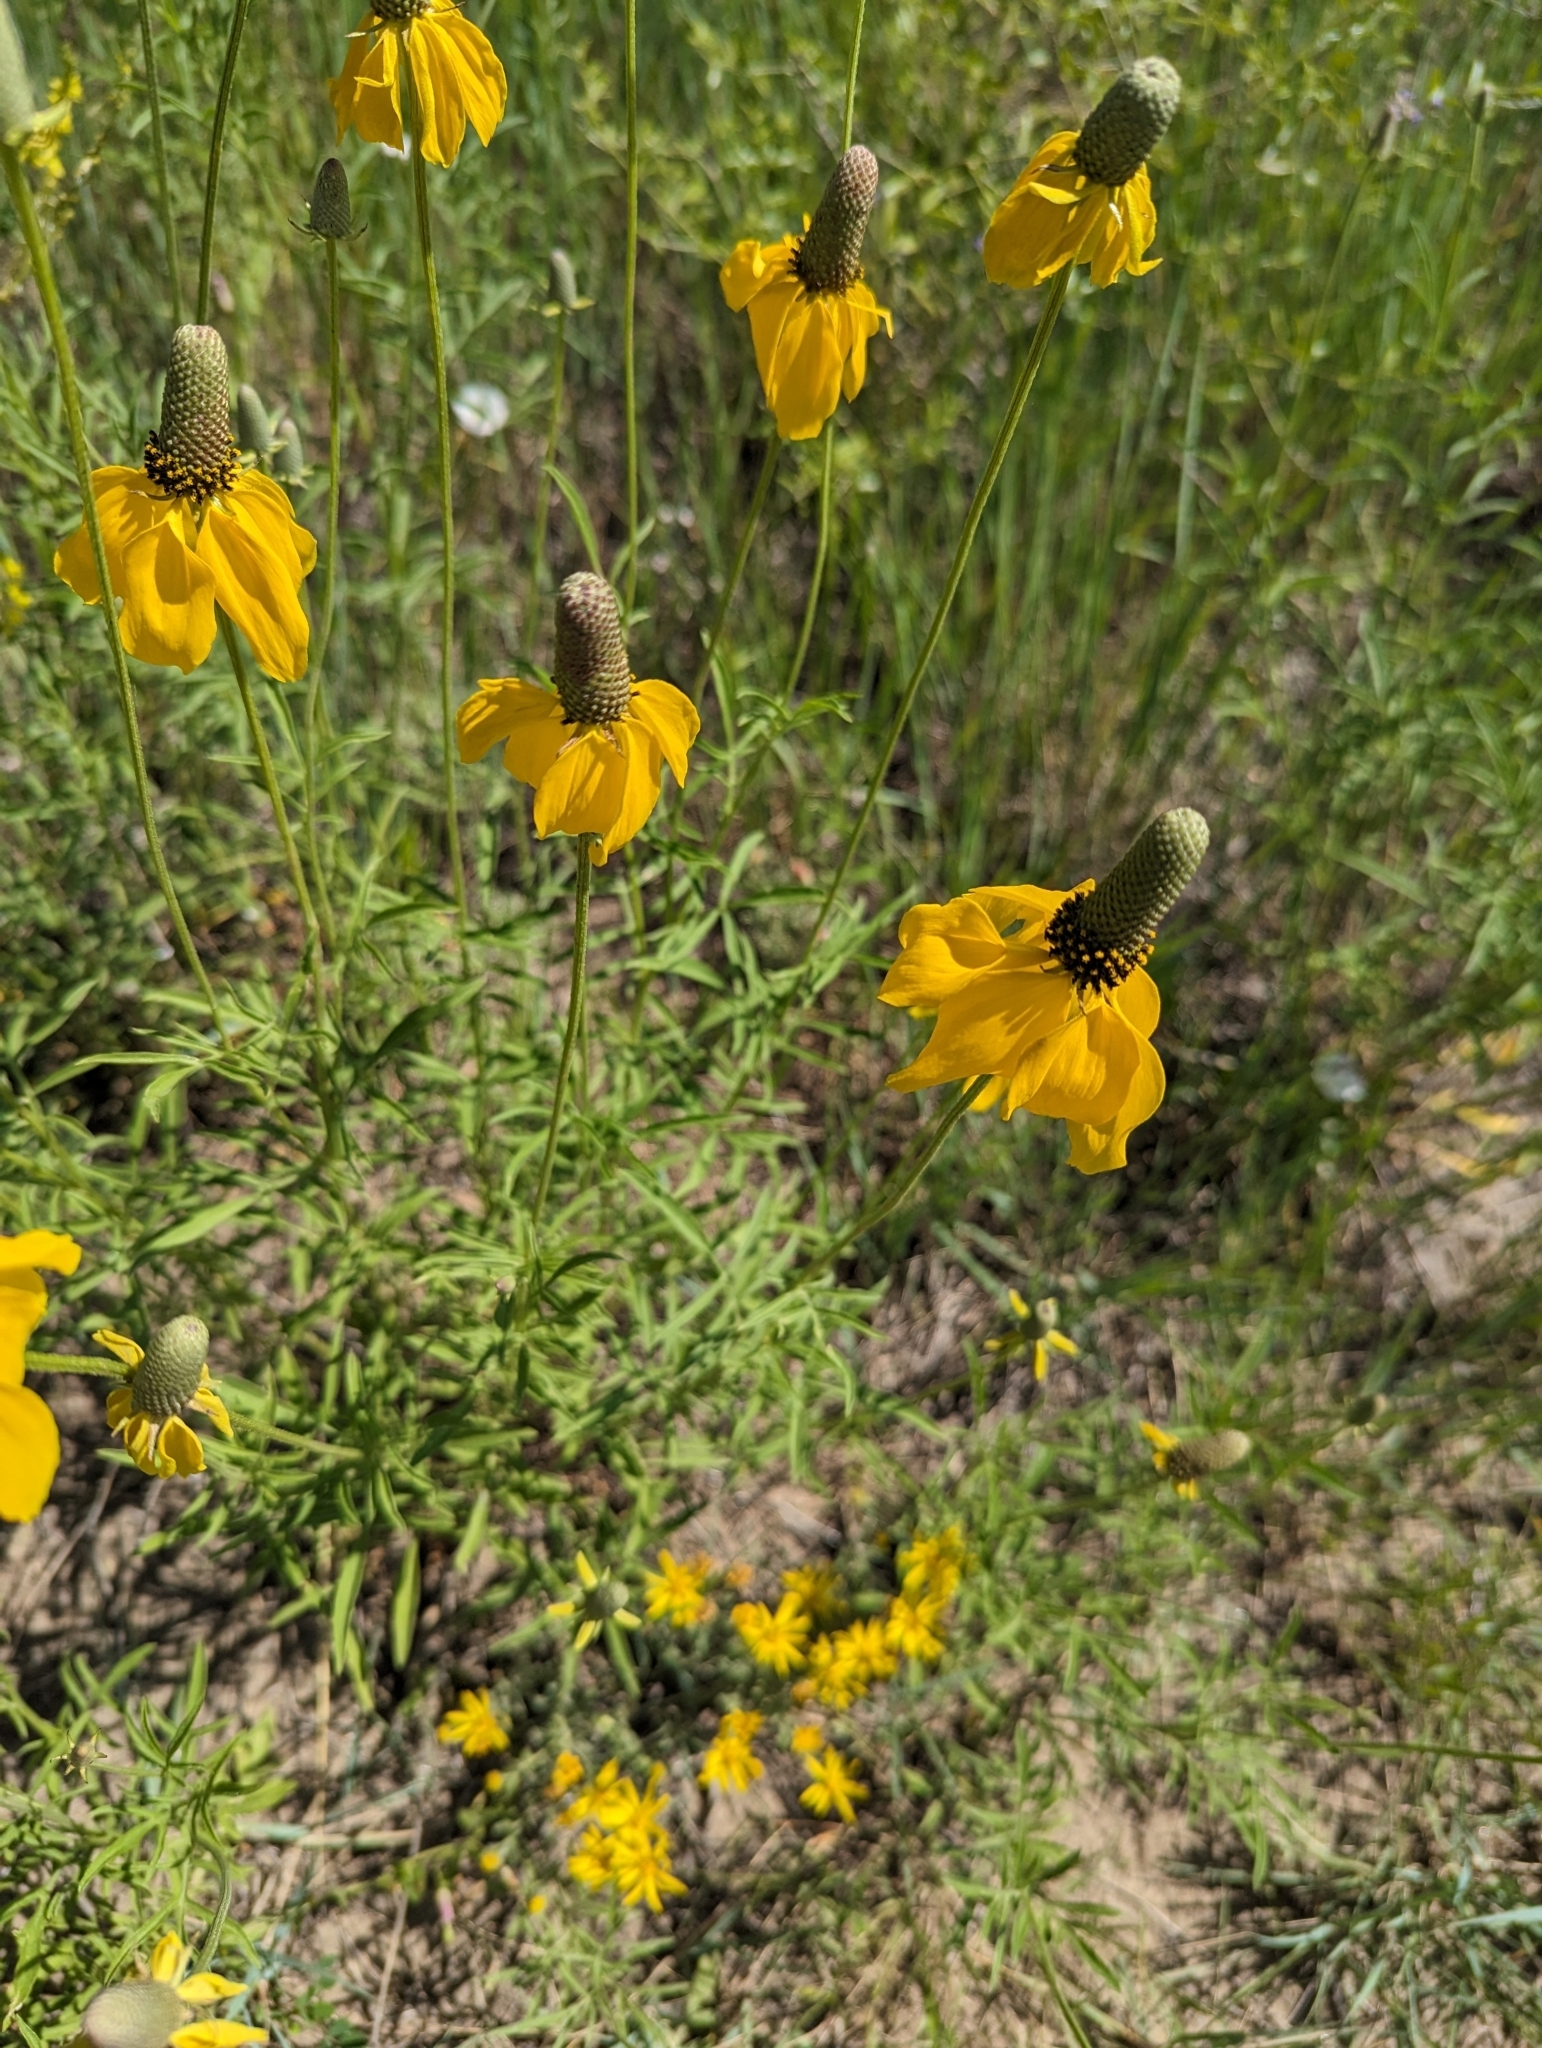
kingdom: Plantae
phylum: Tracheophyta
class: Magnoliopsida
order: Asterales
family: Asteraceae
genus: Ratibida
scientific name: Ratibida columnifera
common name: Prairie coneflower
